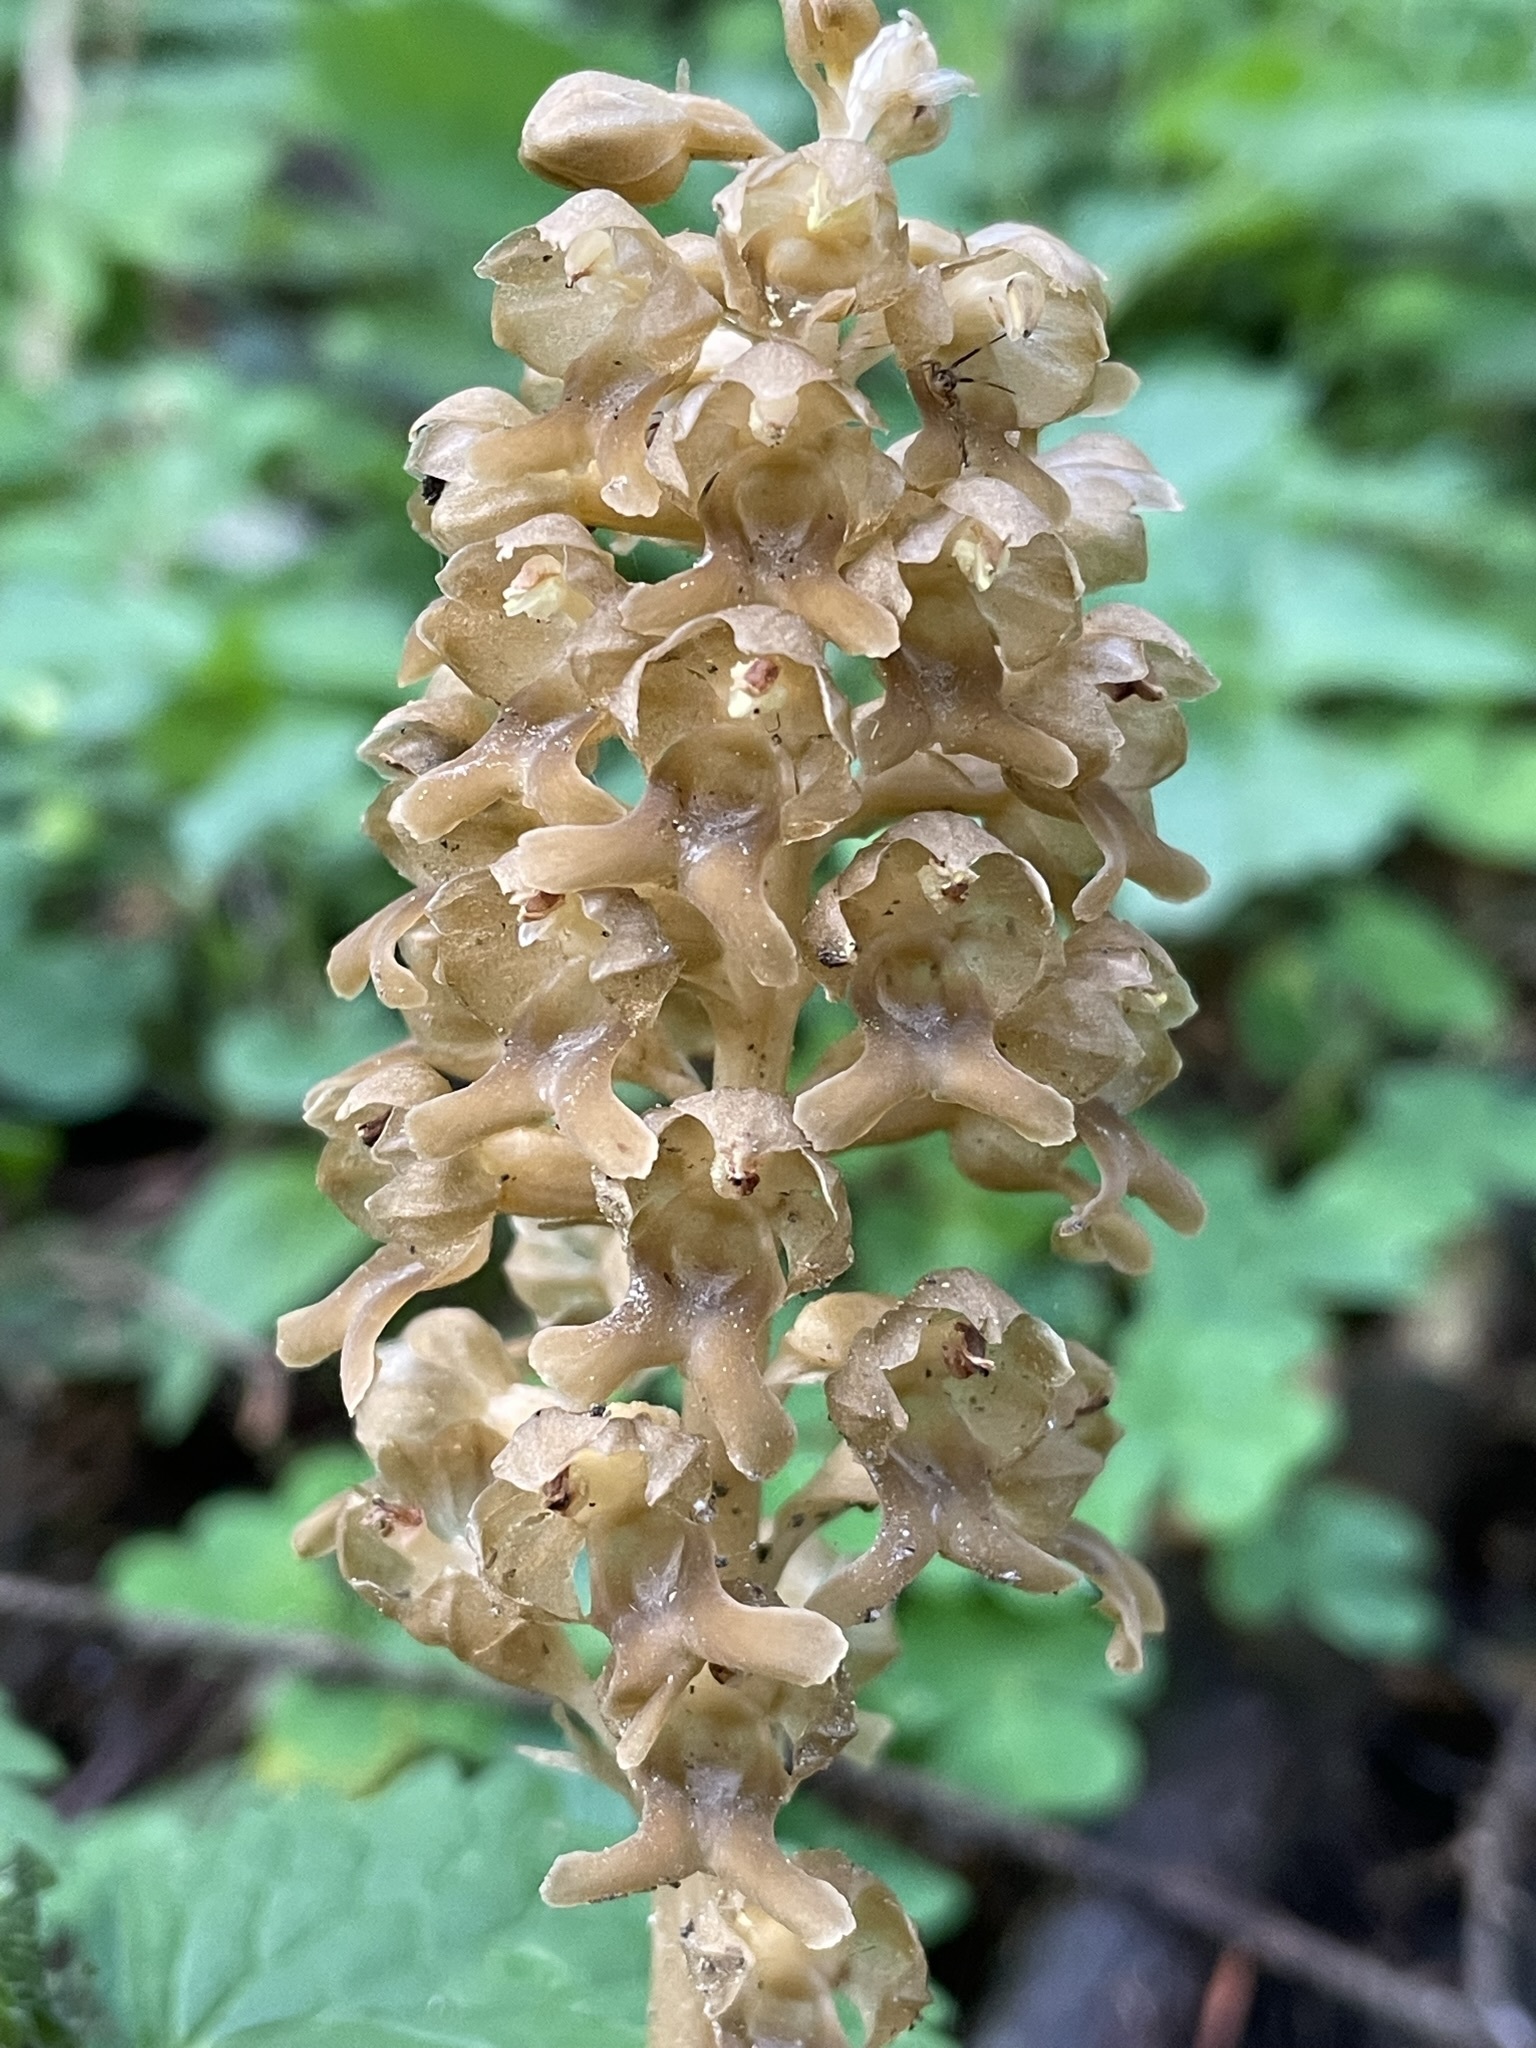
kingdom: Plantae
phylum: Tracheophyta
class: Liliopsida
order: Asparagales
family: Orchidaceae
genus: Neottia
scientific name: Neottia nidus-avis
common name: Bird's-nest orchid
